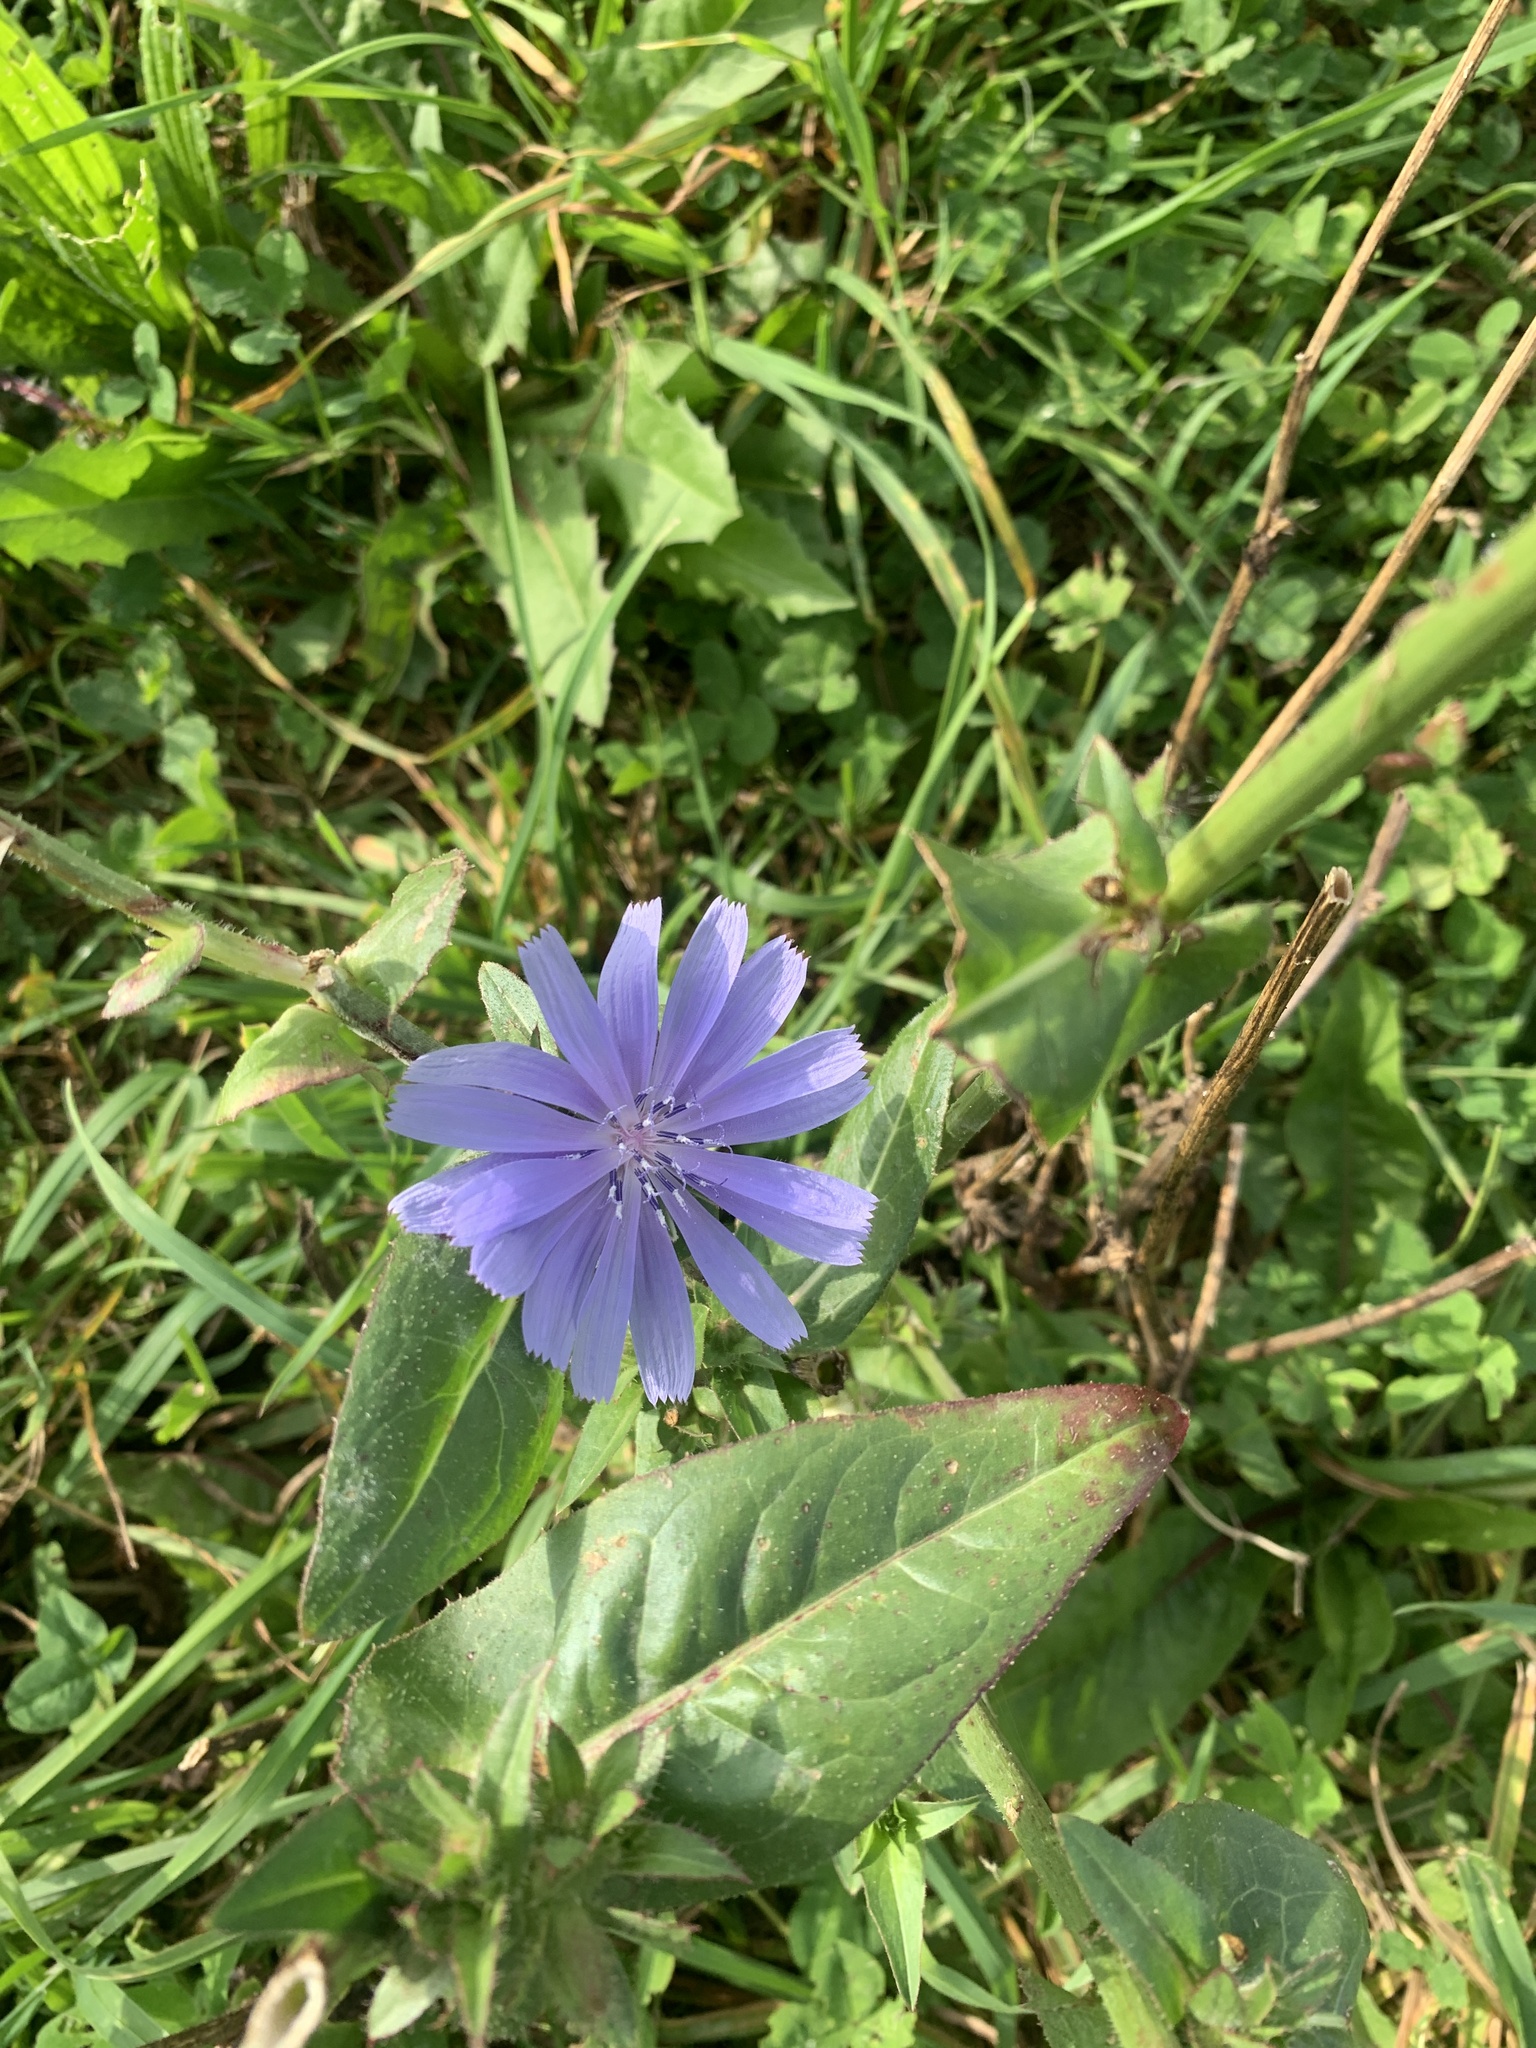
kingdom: Plantae
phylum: Tracheophyta
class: Magnoliopsida
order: Asterales
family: Asteraceae
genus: Cichorium
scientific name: Cichorium intybus
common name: Chicory
